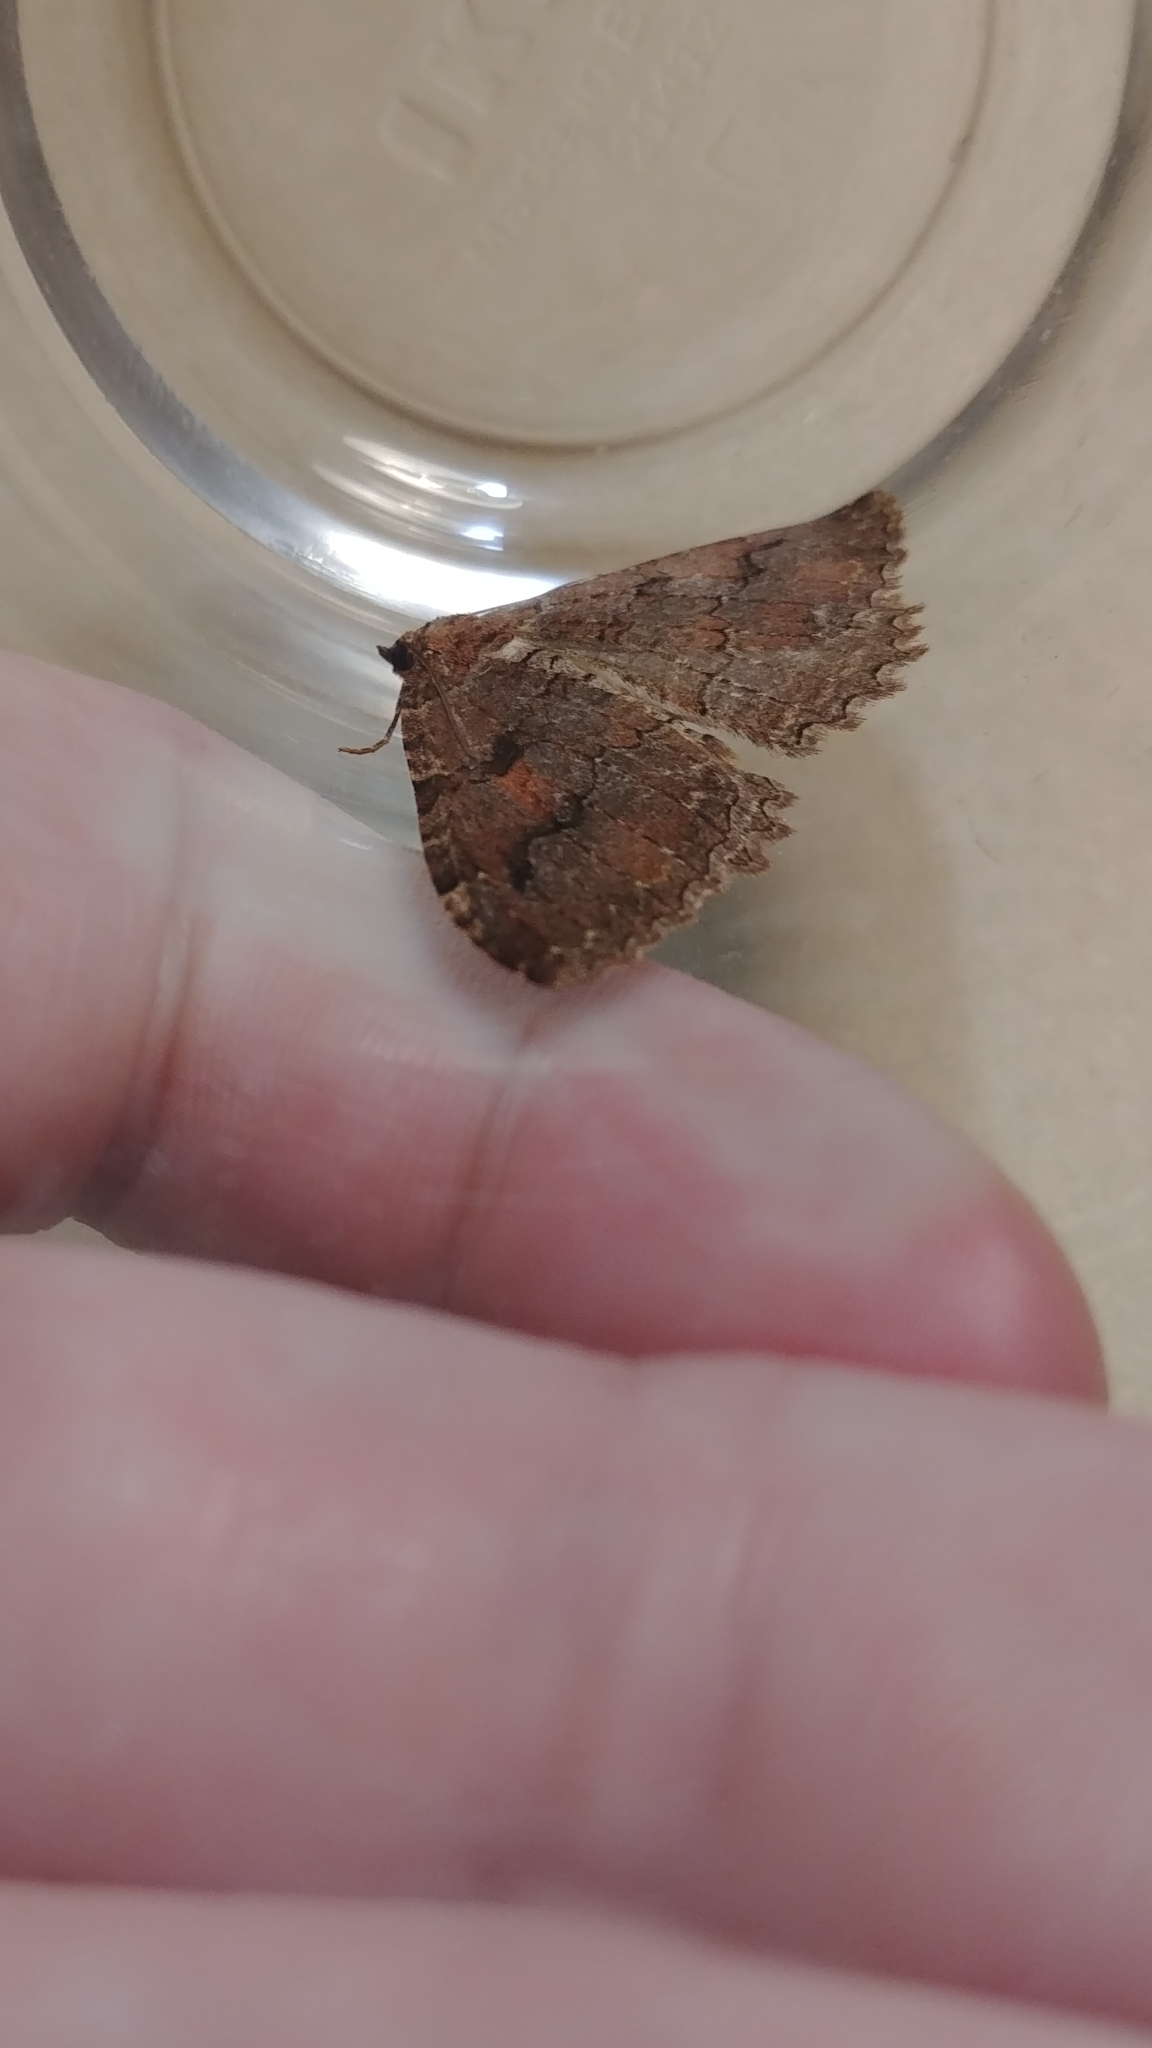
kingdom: Animalia
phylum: Arthropoda
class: Insecta
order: Lepidoptera
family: Geometridae
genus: Triphosa
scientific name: Triphosa haesitata
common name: Tissue moth
